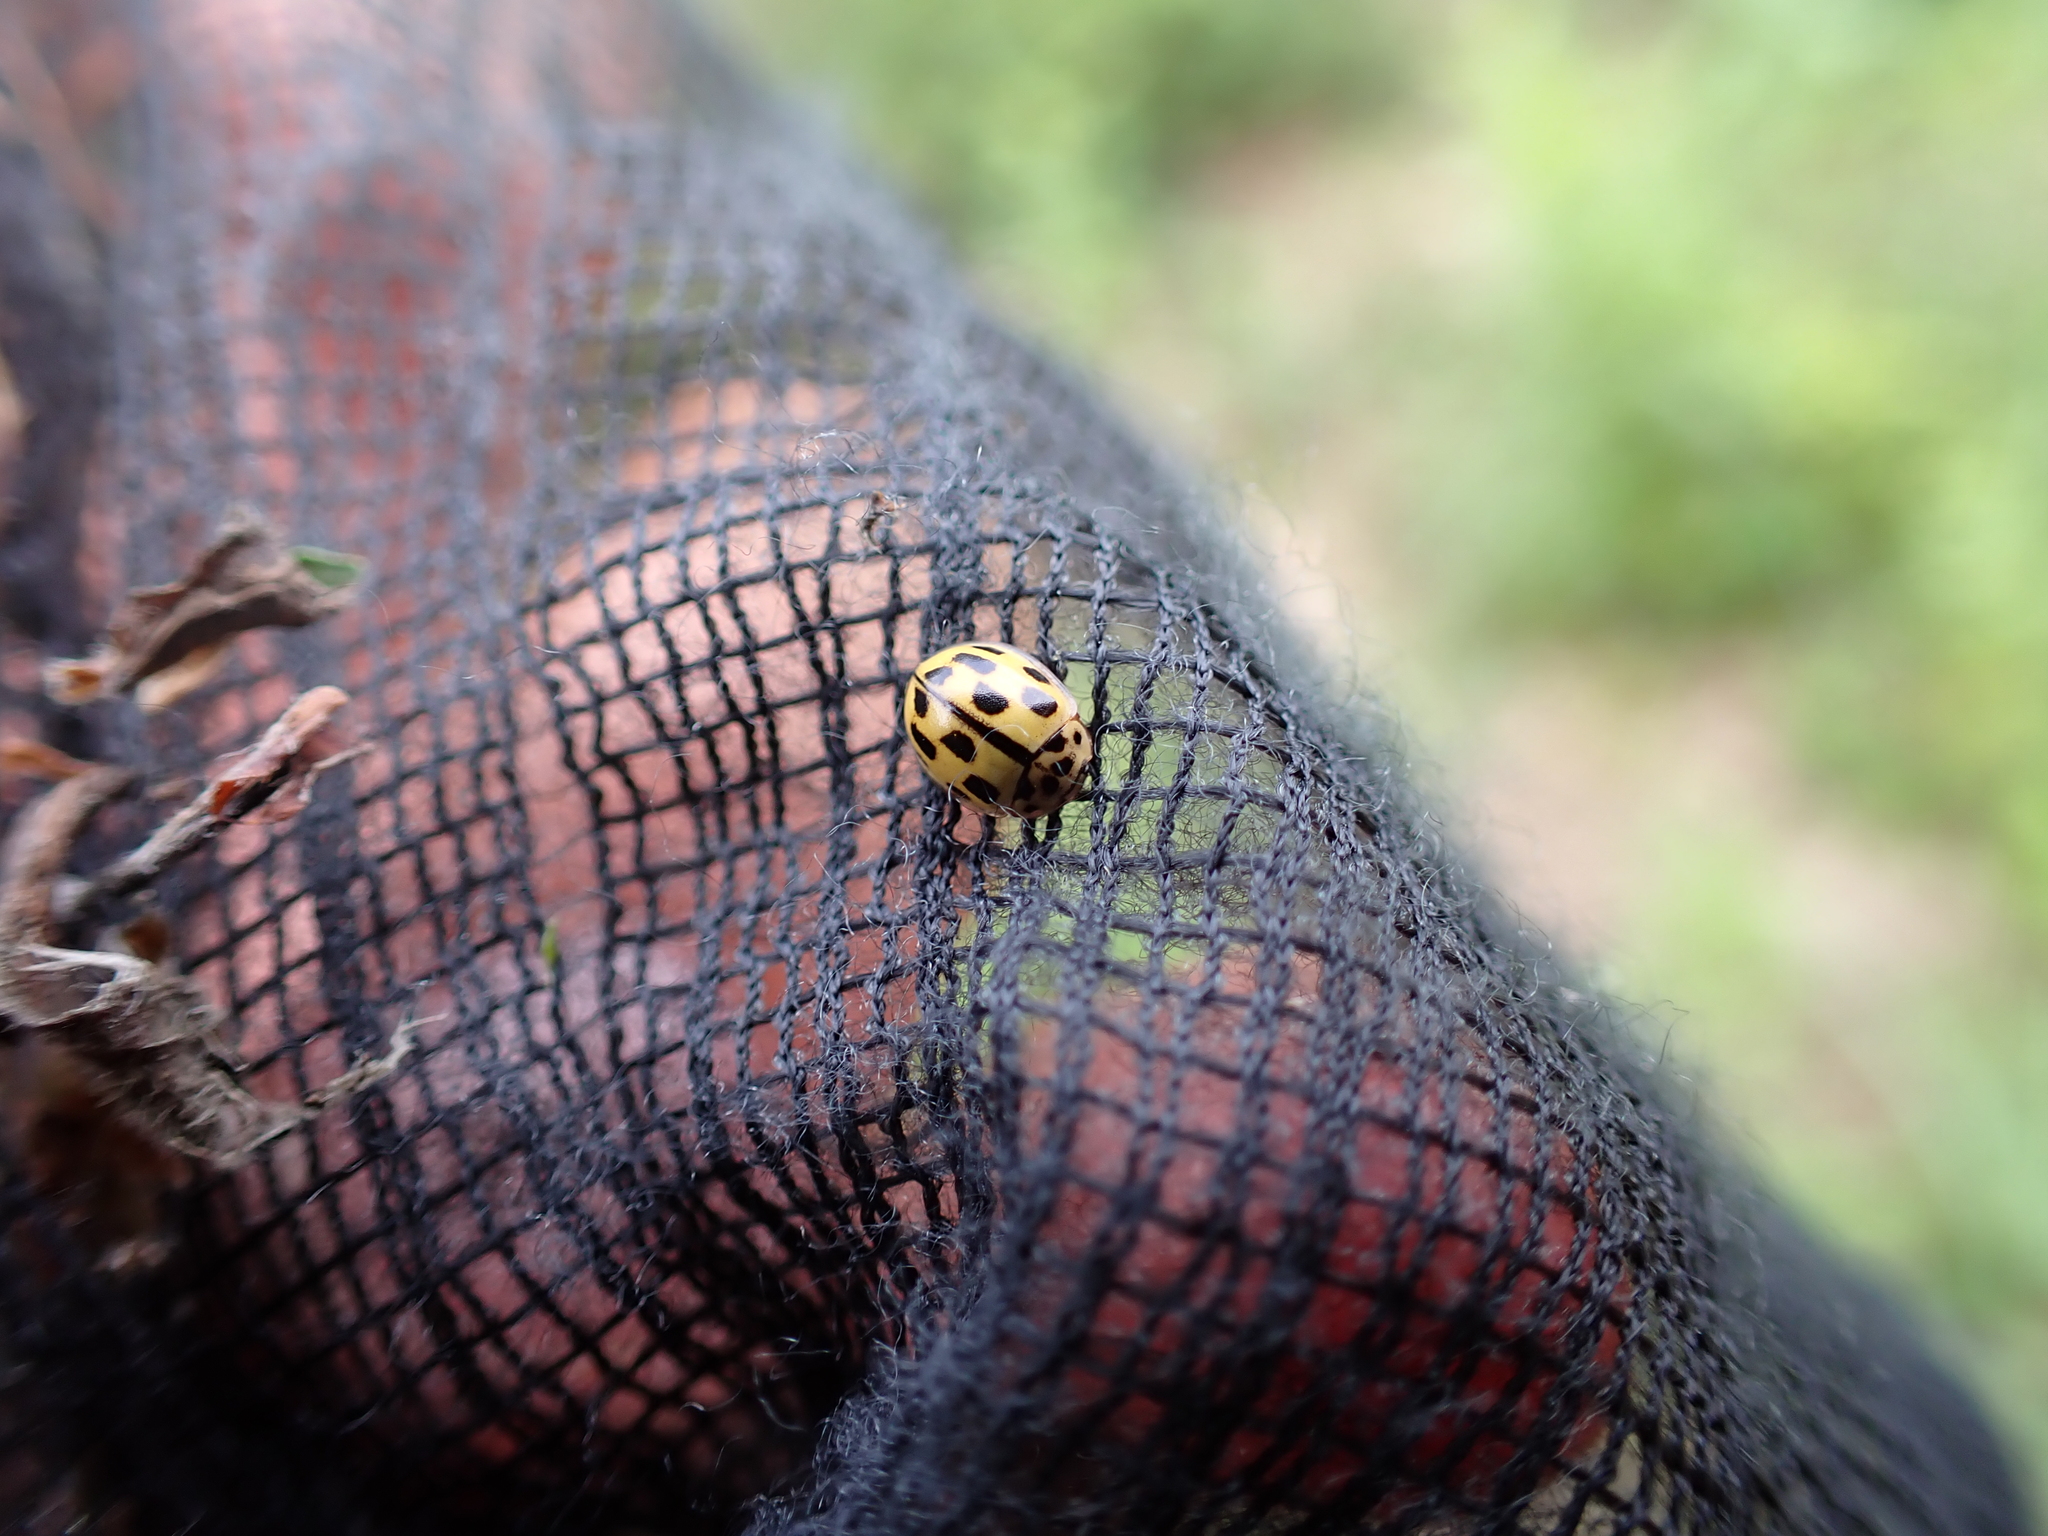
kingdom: Animalia
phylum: Arthropoda
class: Insecta
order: Coleoptera
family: Coccinellidae
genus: Propylaea
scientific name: Propylaea quatuordecimpunctata
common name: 14-spotted ladybird beetle
